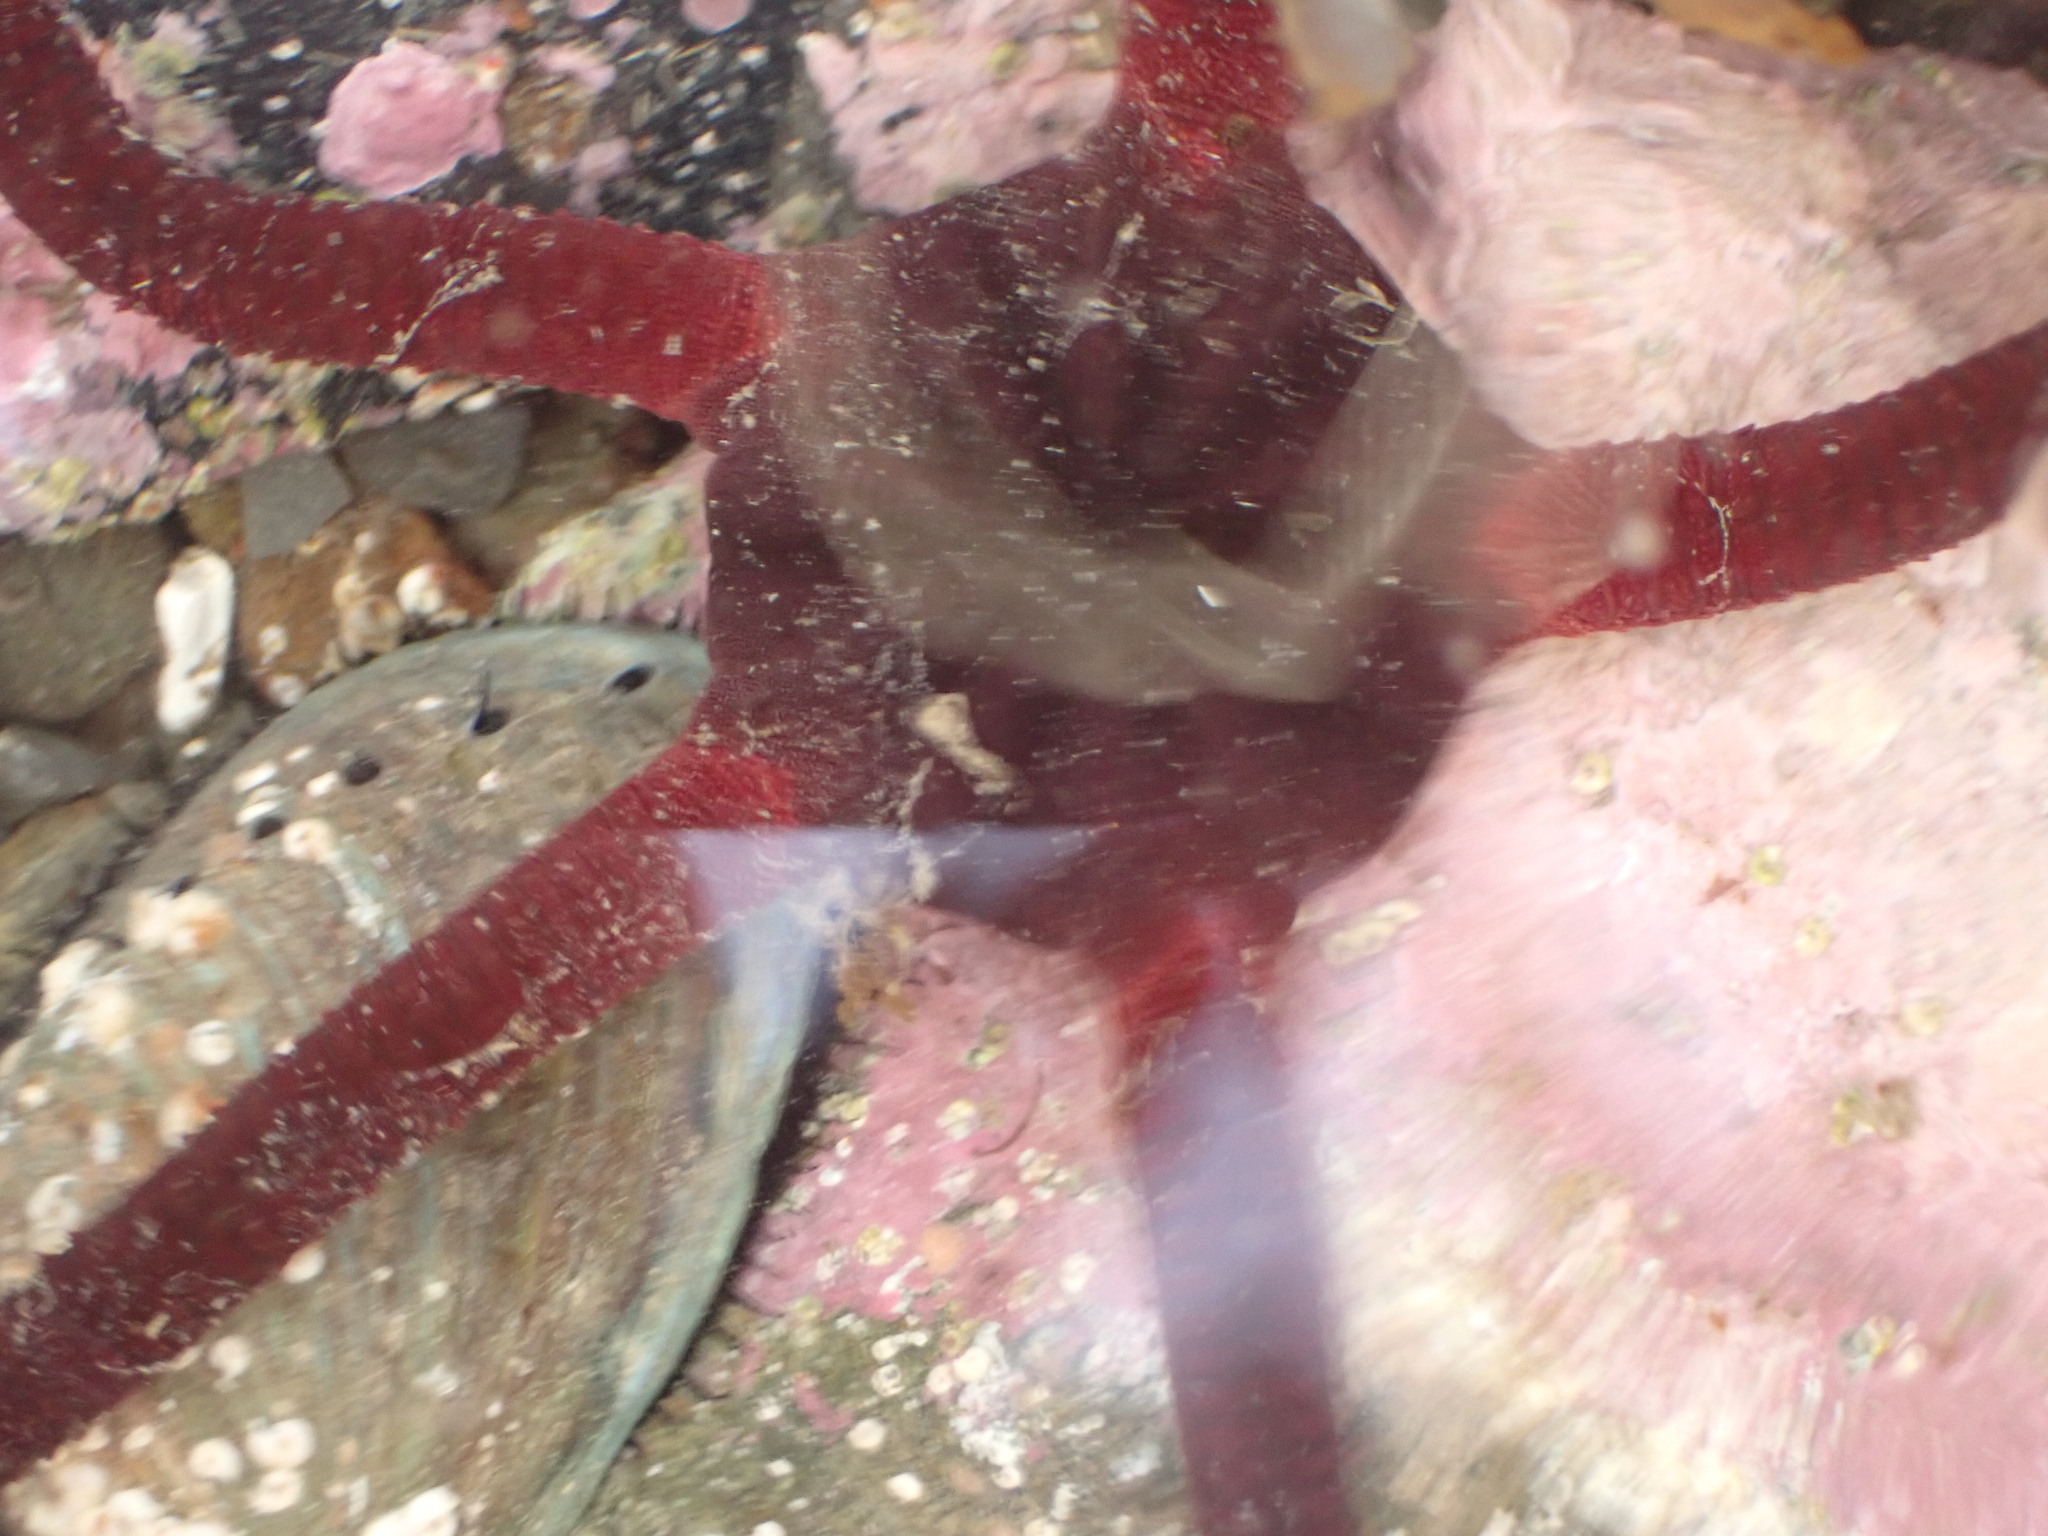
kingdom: Animalia
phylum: Echinodermata
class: Ophiuroidea
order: Ophiacanthida
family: Ophiodermatidae
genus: Ophiopsammus
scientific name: Ophiopsammus maculata
